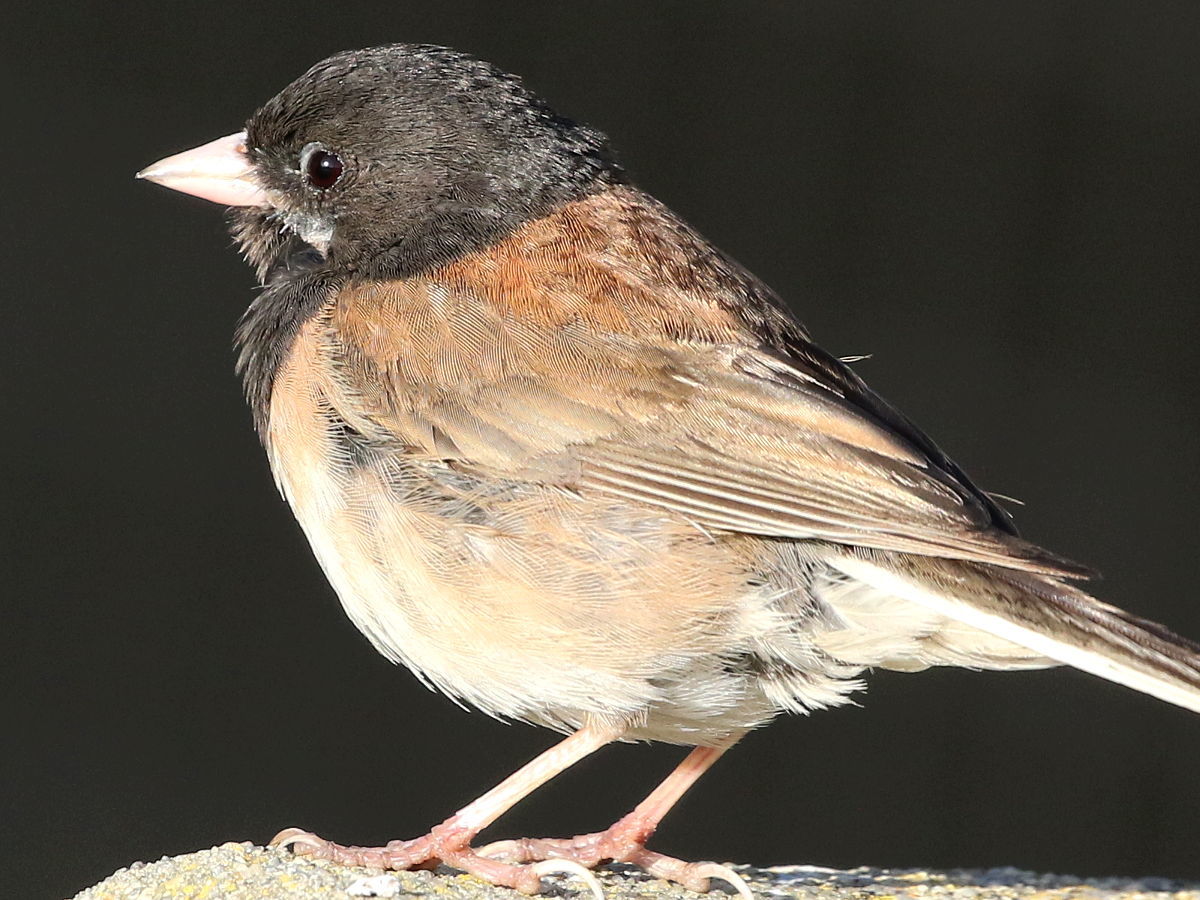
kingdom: Animalia
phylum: Chordata
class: Aves
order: Passeriformes
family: Passerellidae
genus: Junco
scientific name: Junco hyemalis
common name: Dark-eyed junco
